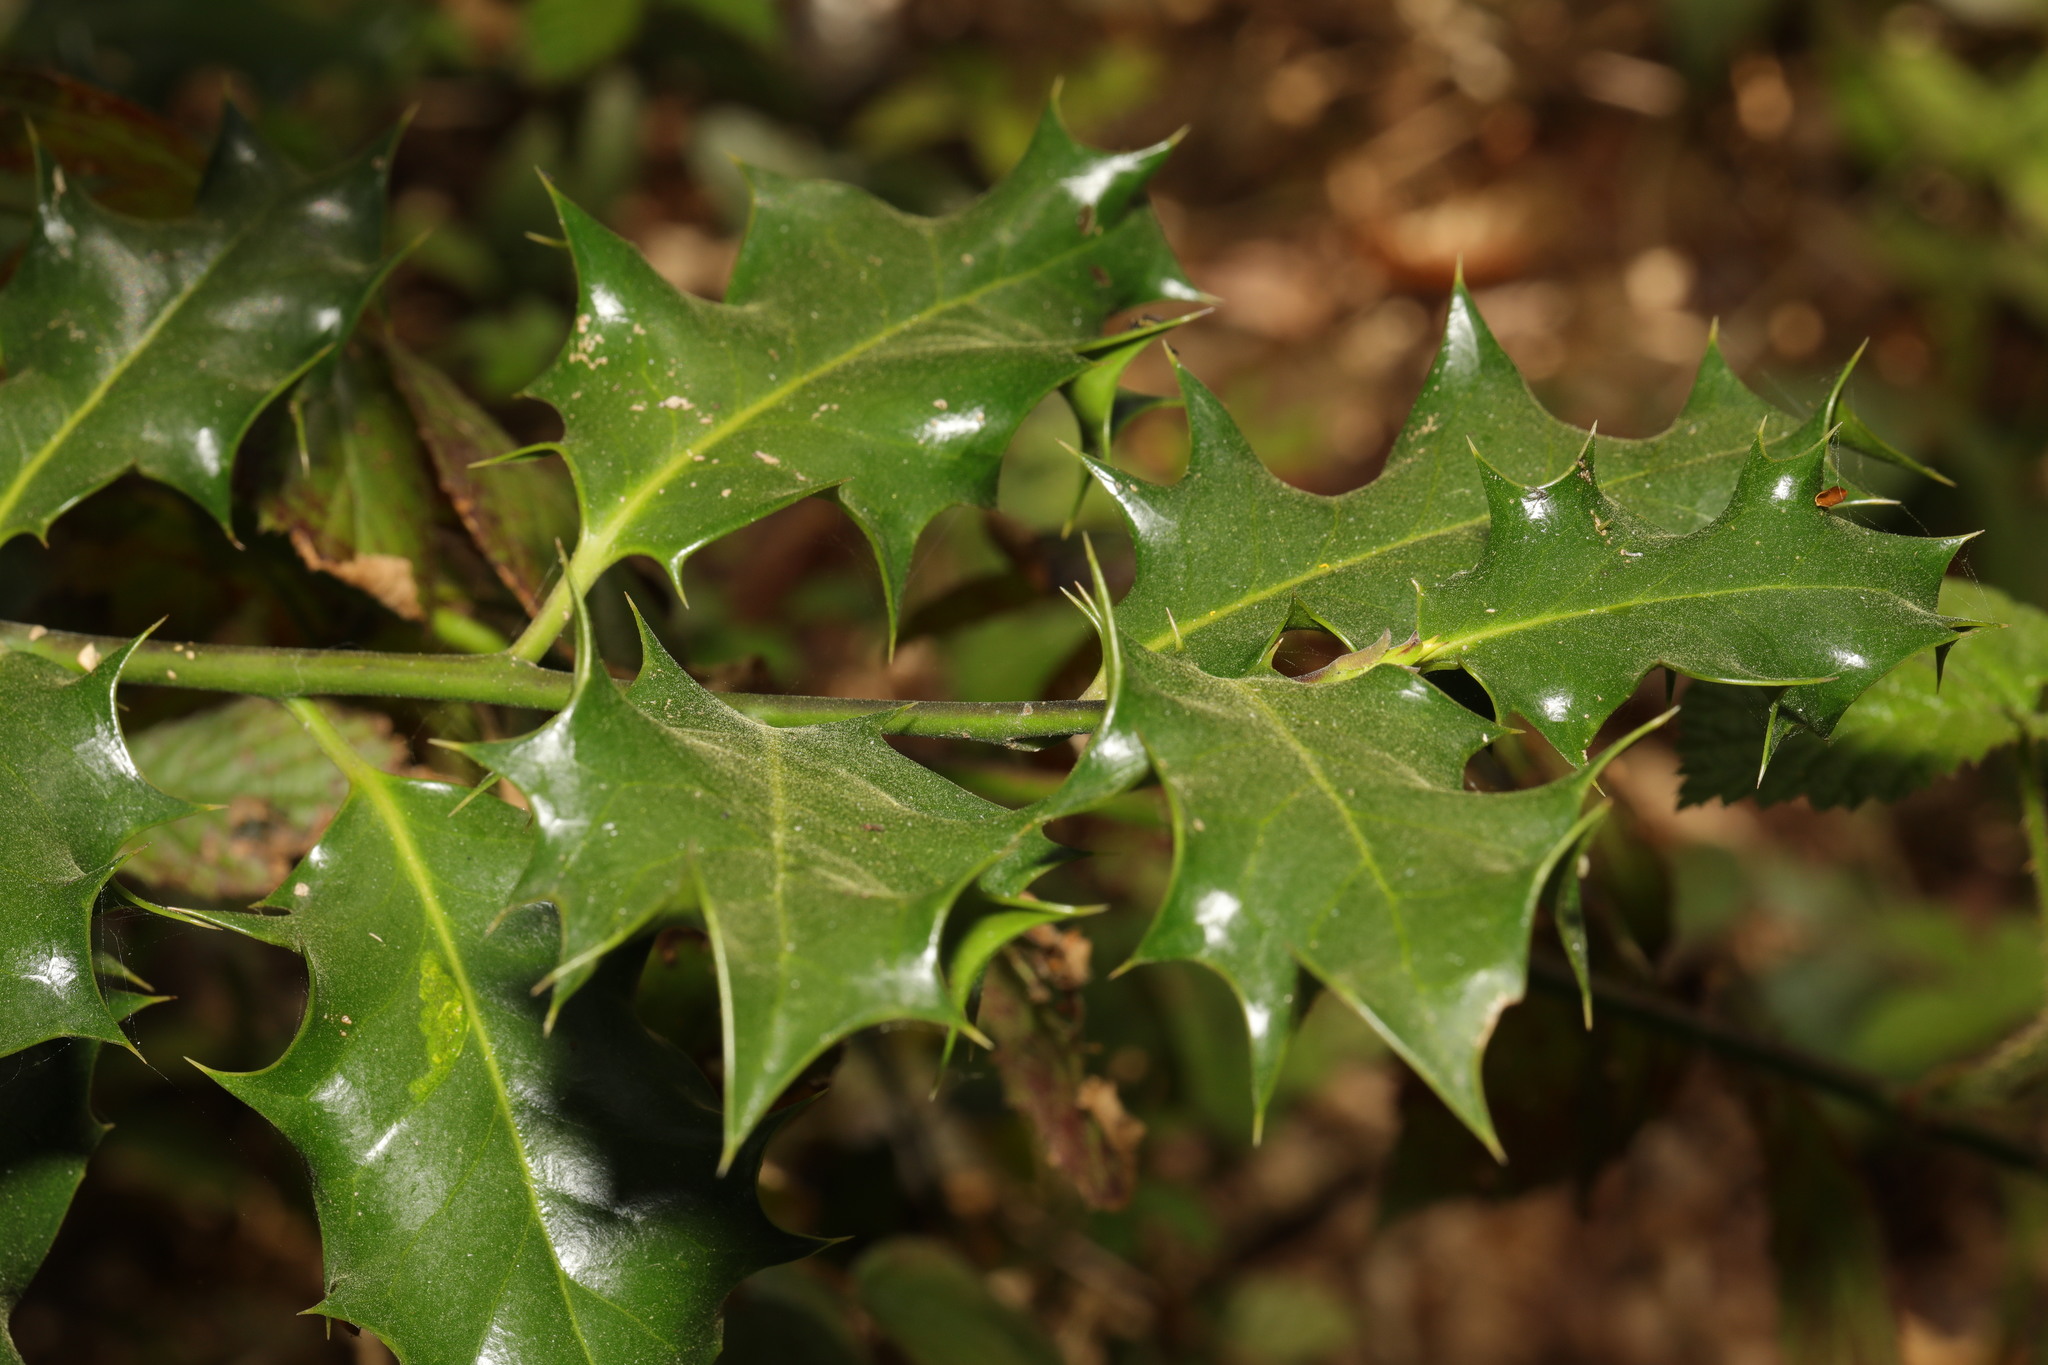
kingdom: Plantae
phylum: Tracheophyta
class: Magnoliopsida
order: Aquifoliales
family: Aquifoliaceae
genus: Ilex
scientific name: Ilex aquifolium
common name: English holly
